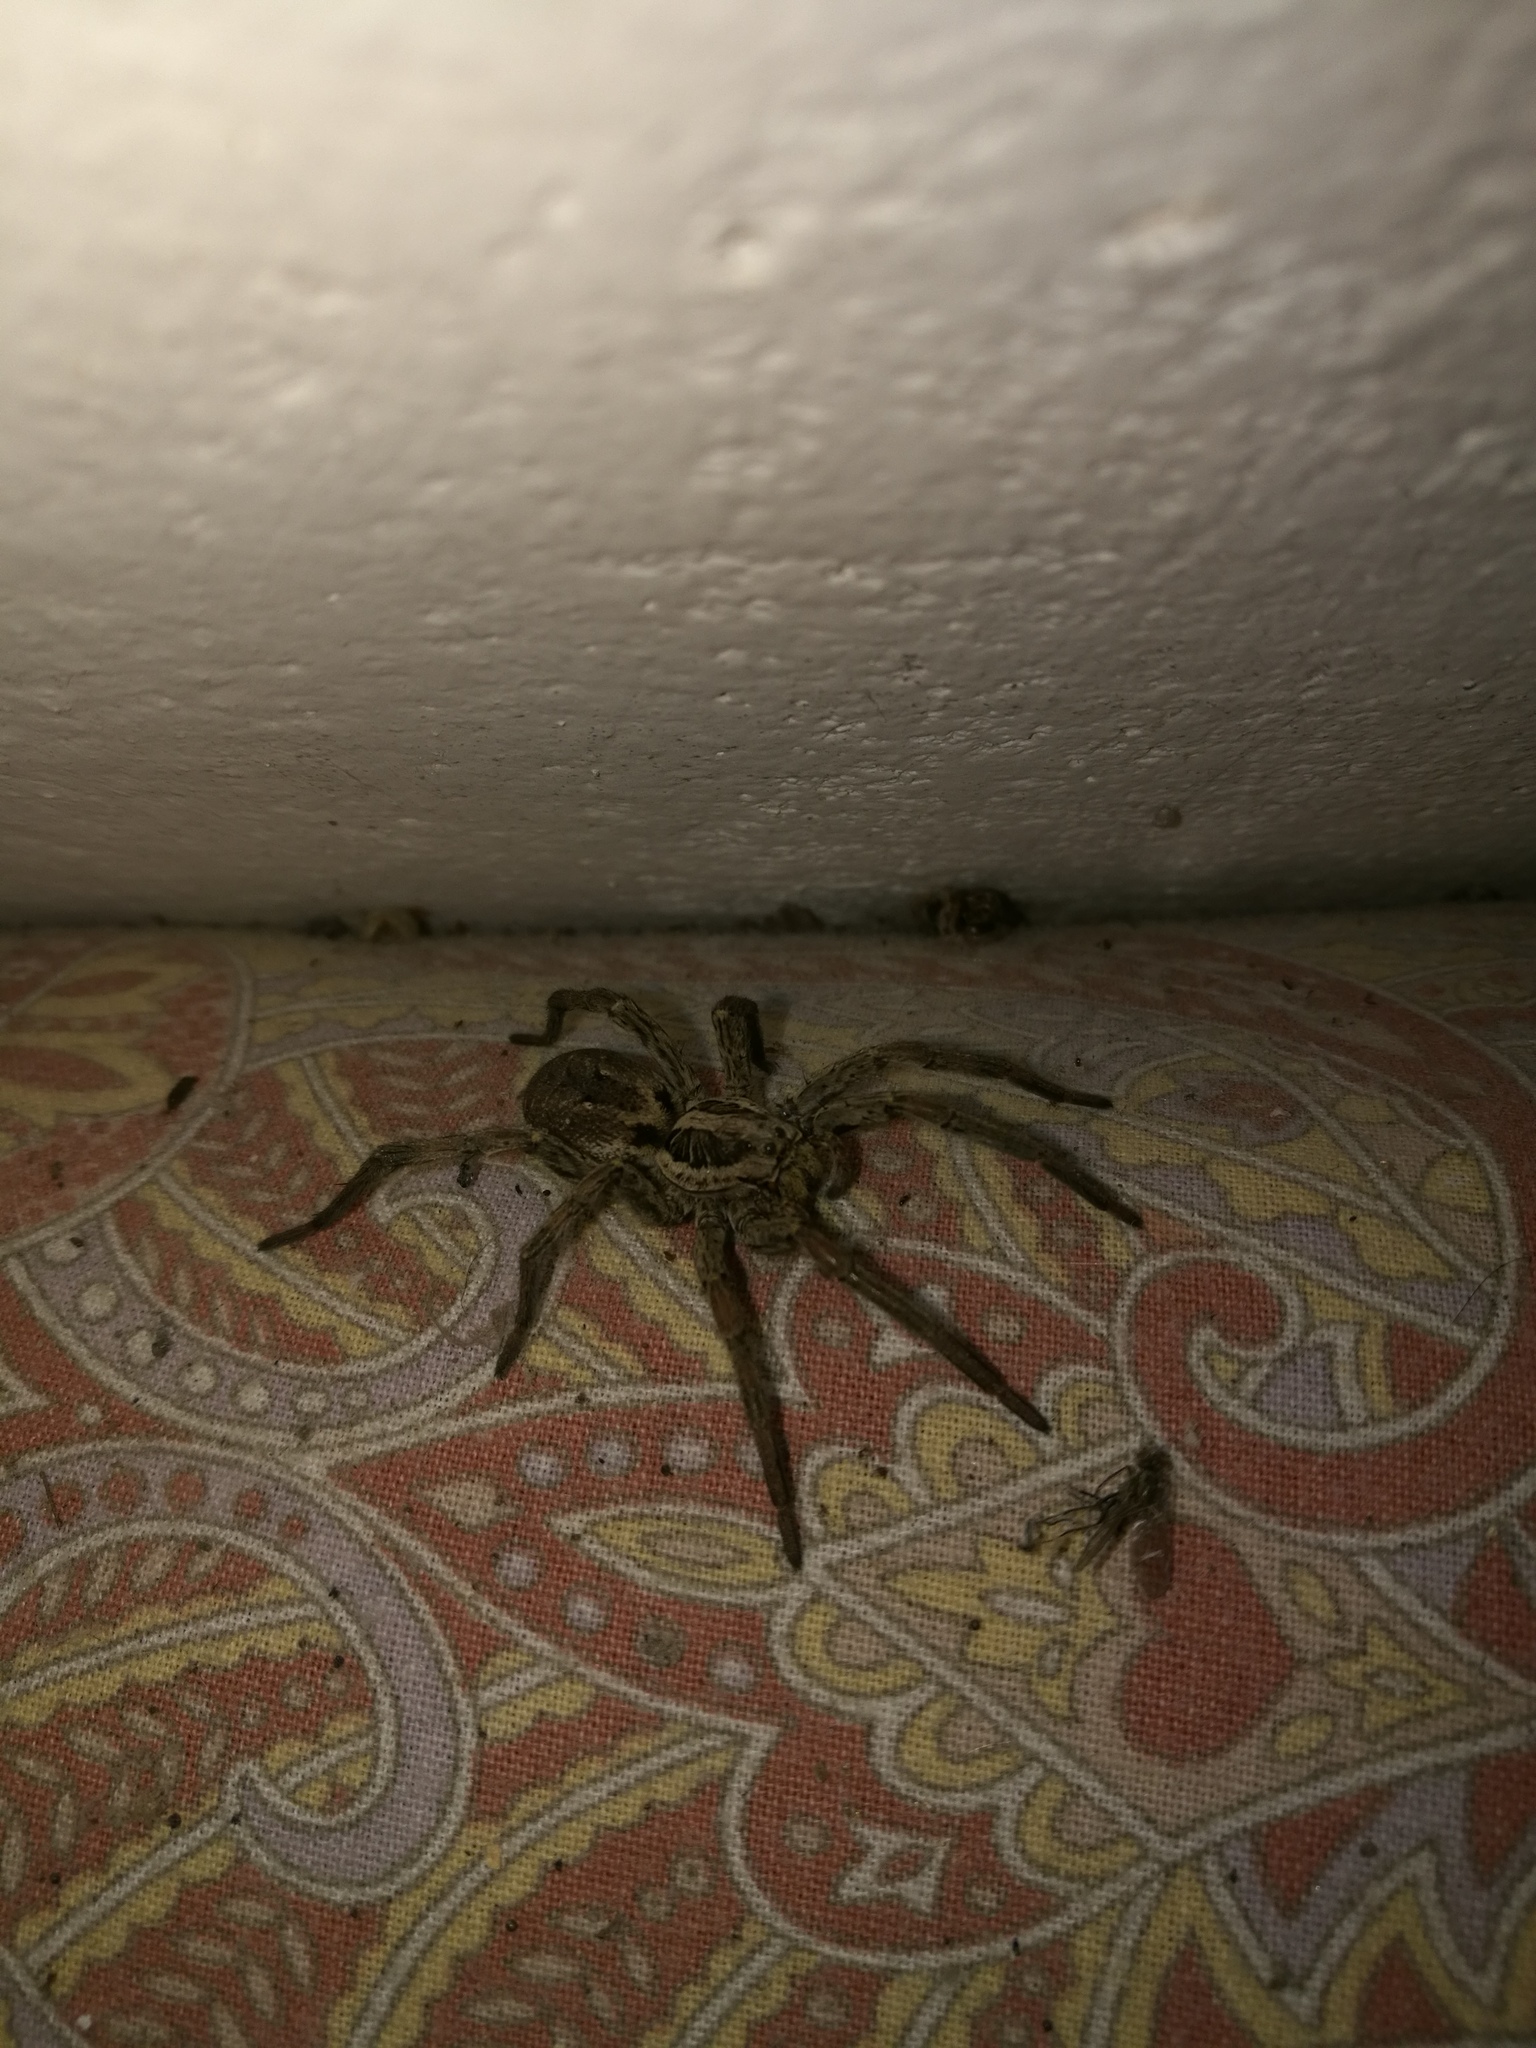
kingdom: Animalia
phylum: Arthropoda
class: Arachnida
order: Araneae
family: Lycosidae
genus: Hogna
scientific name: Hogna radiata
